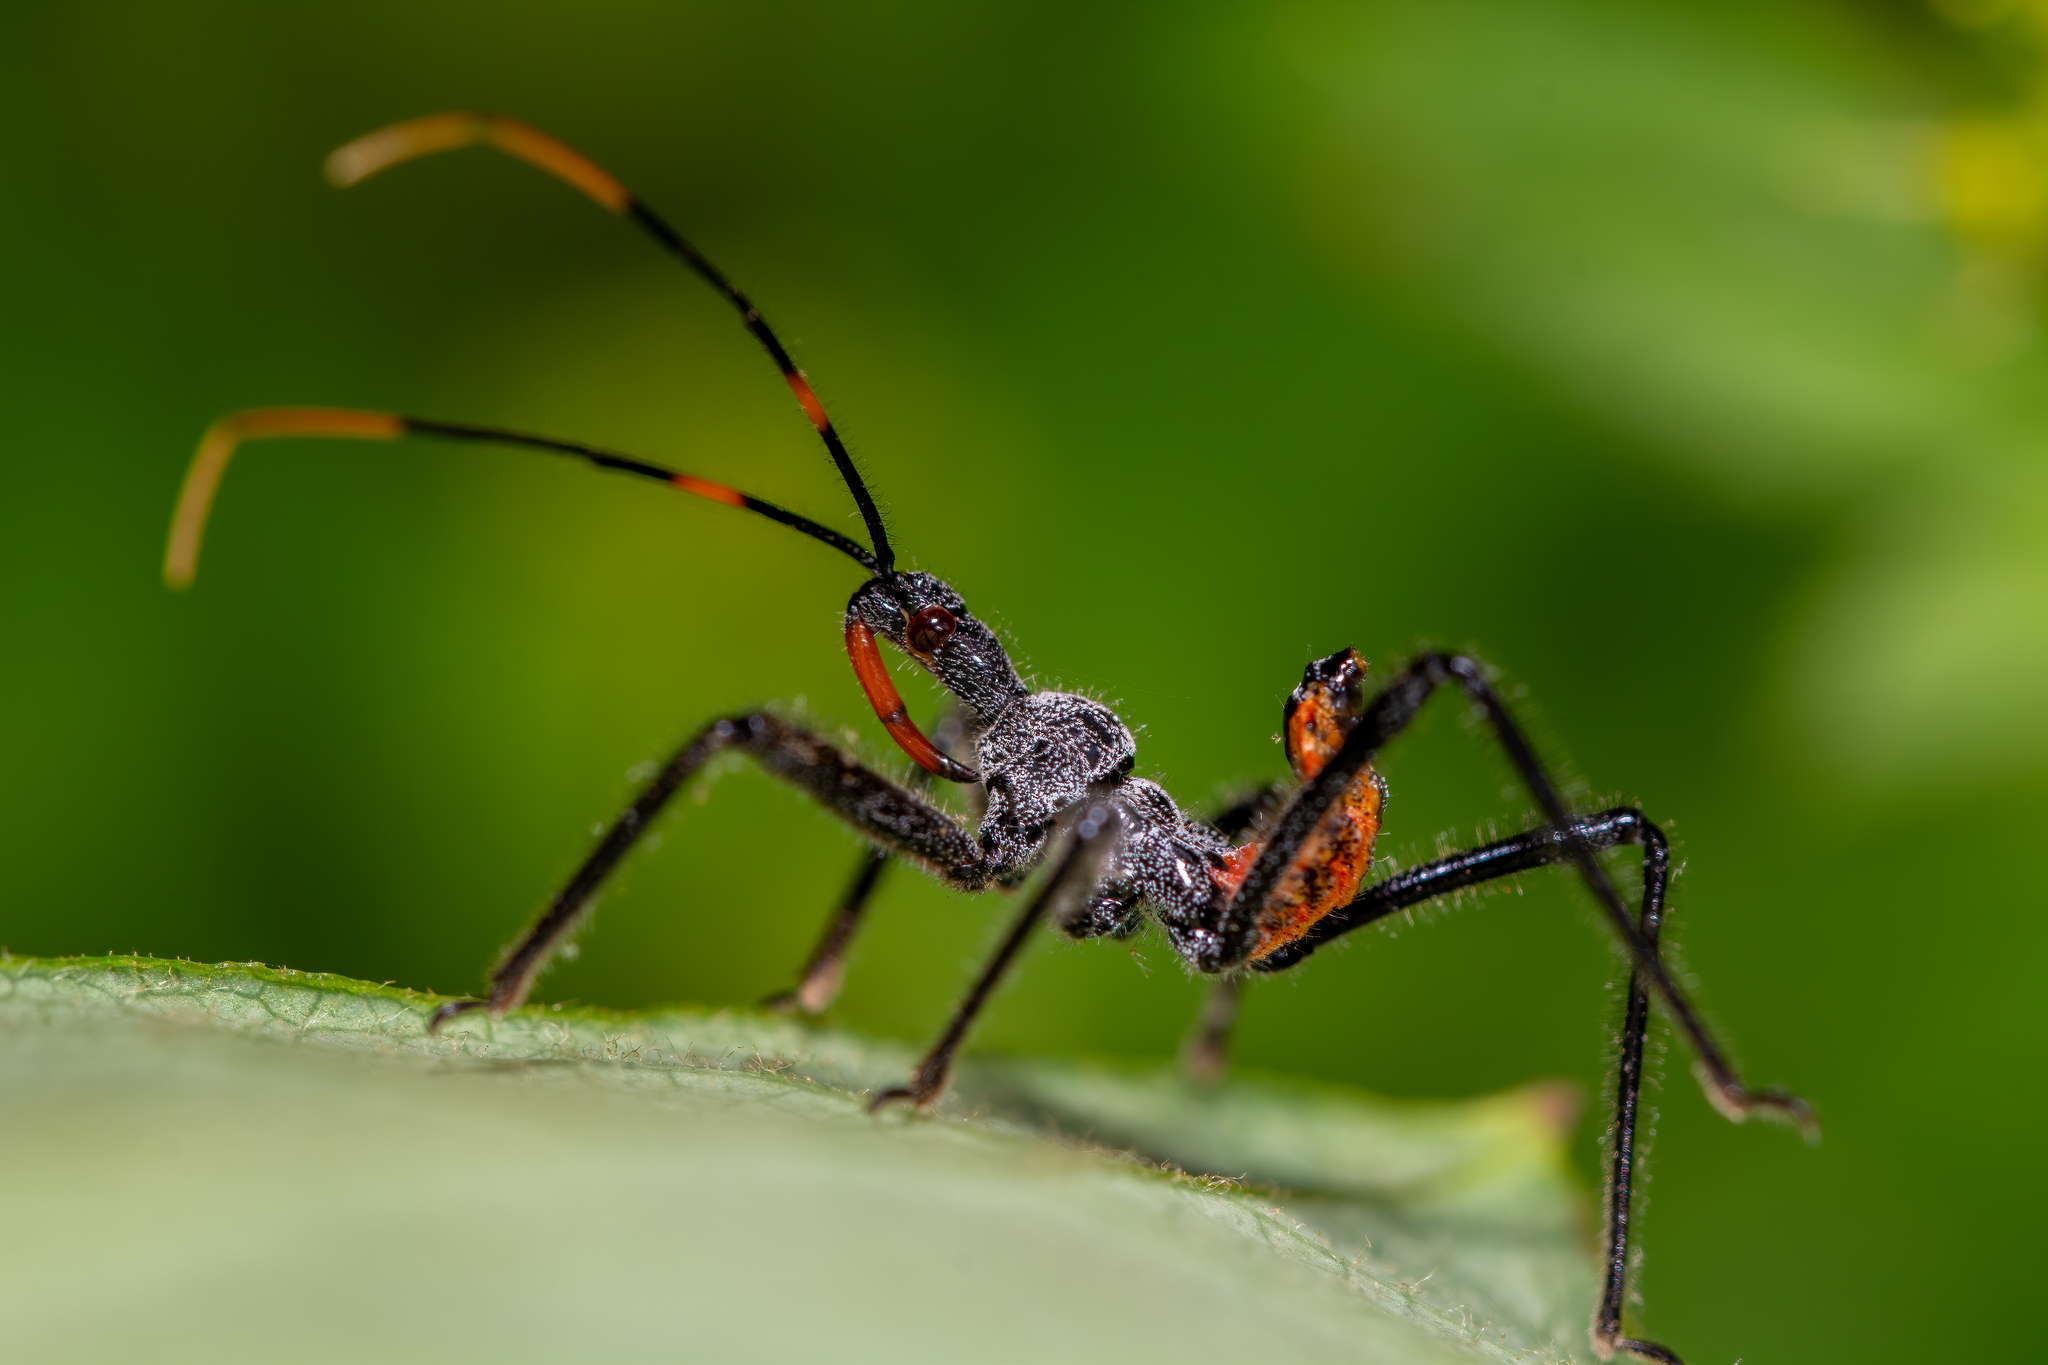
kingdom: Animalia
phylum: Arthropoda
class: Insecta
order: Hemiptera
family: Reduviidae
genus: Arilus
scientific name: Arilus cristatus
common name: North american wheel bug
